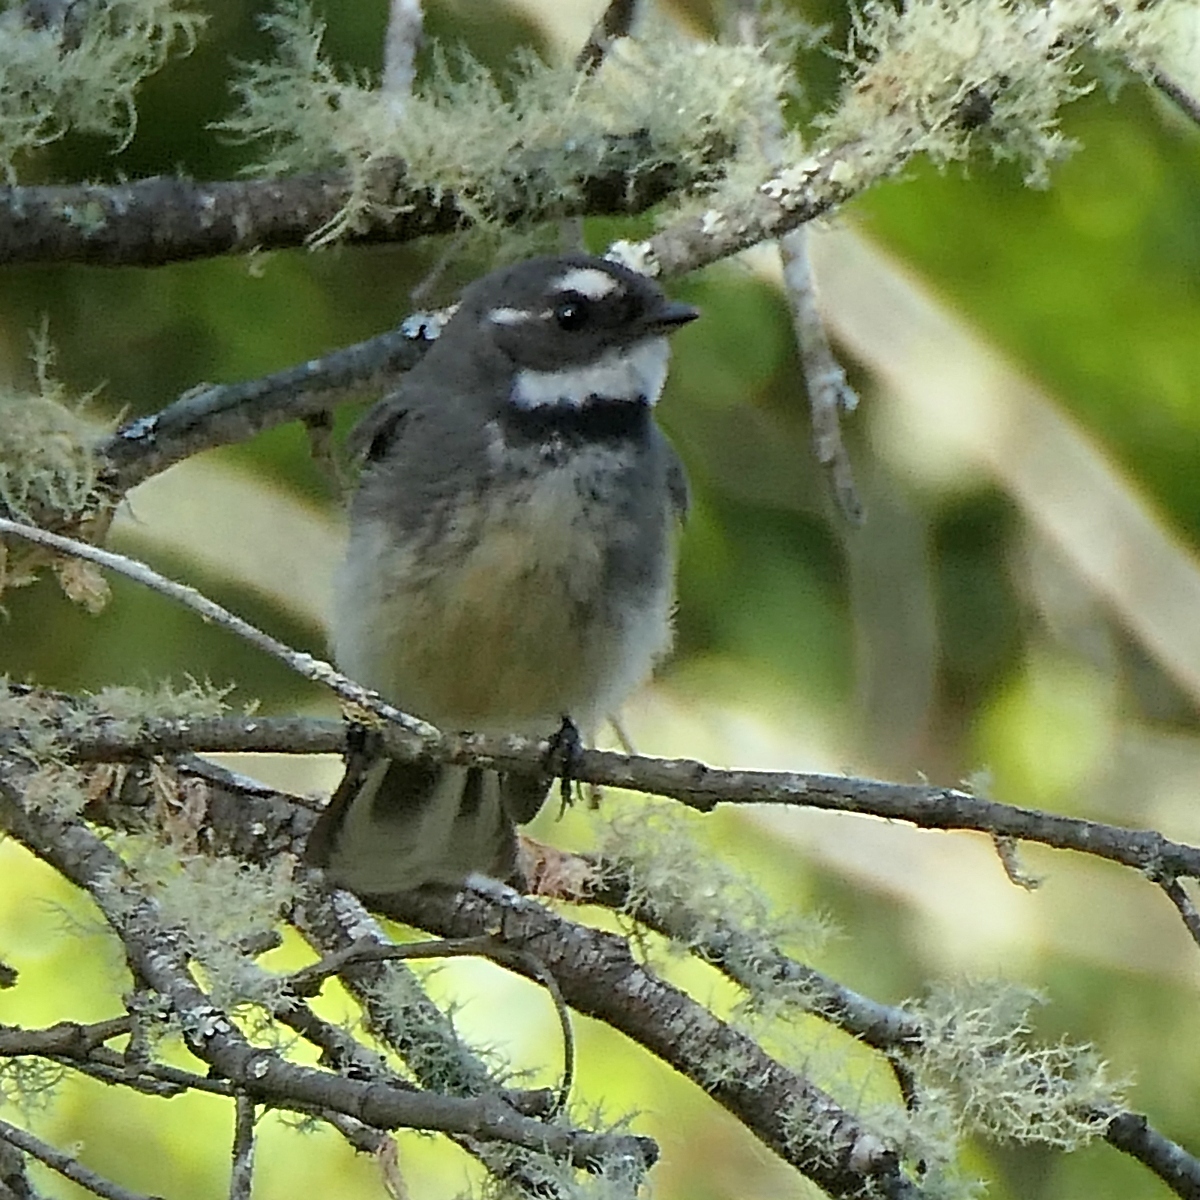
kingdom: Animalia
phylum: Chordata
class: Aves
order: Passeriformes
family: Rhipiduridae
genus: Rhipidura
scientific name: Rhipidura albiscapa
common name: Grey fantail
